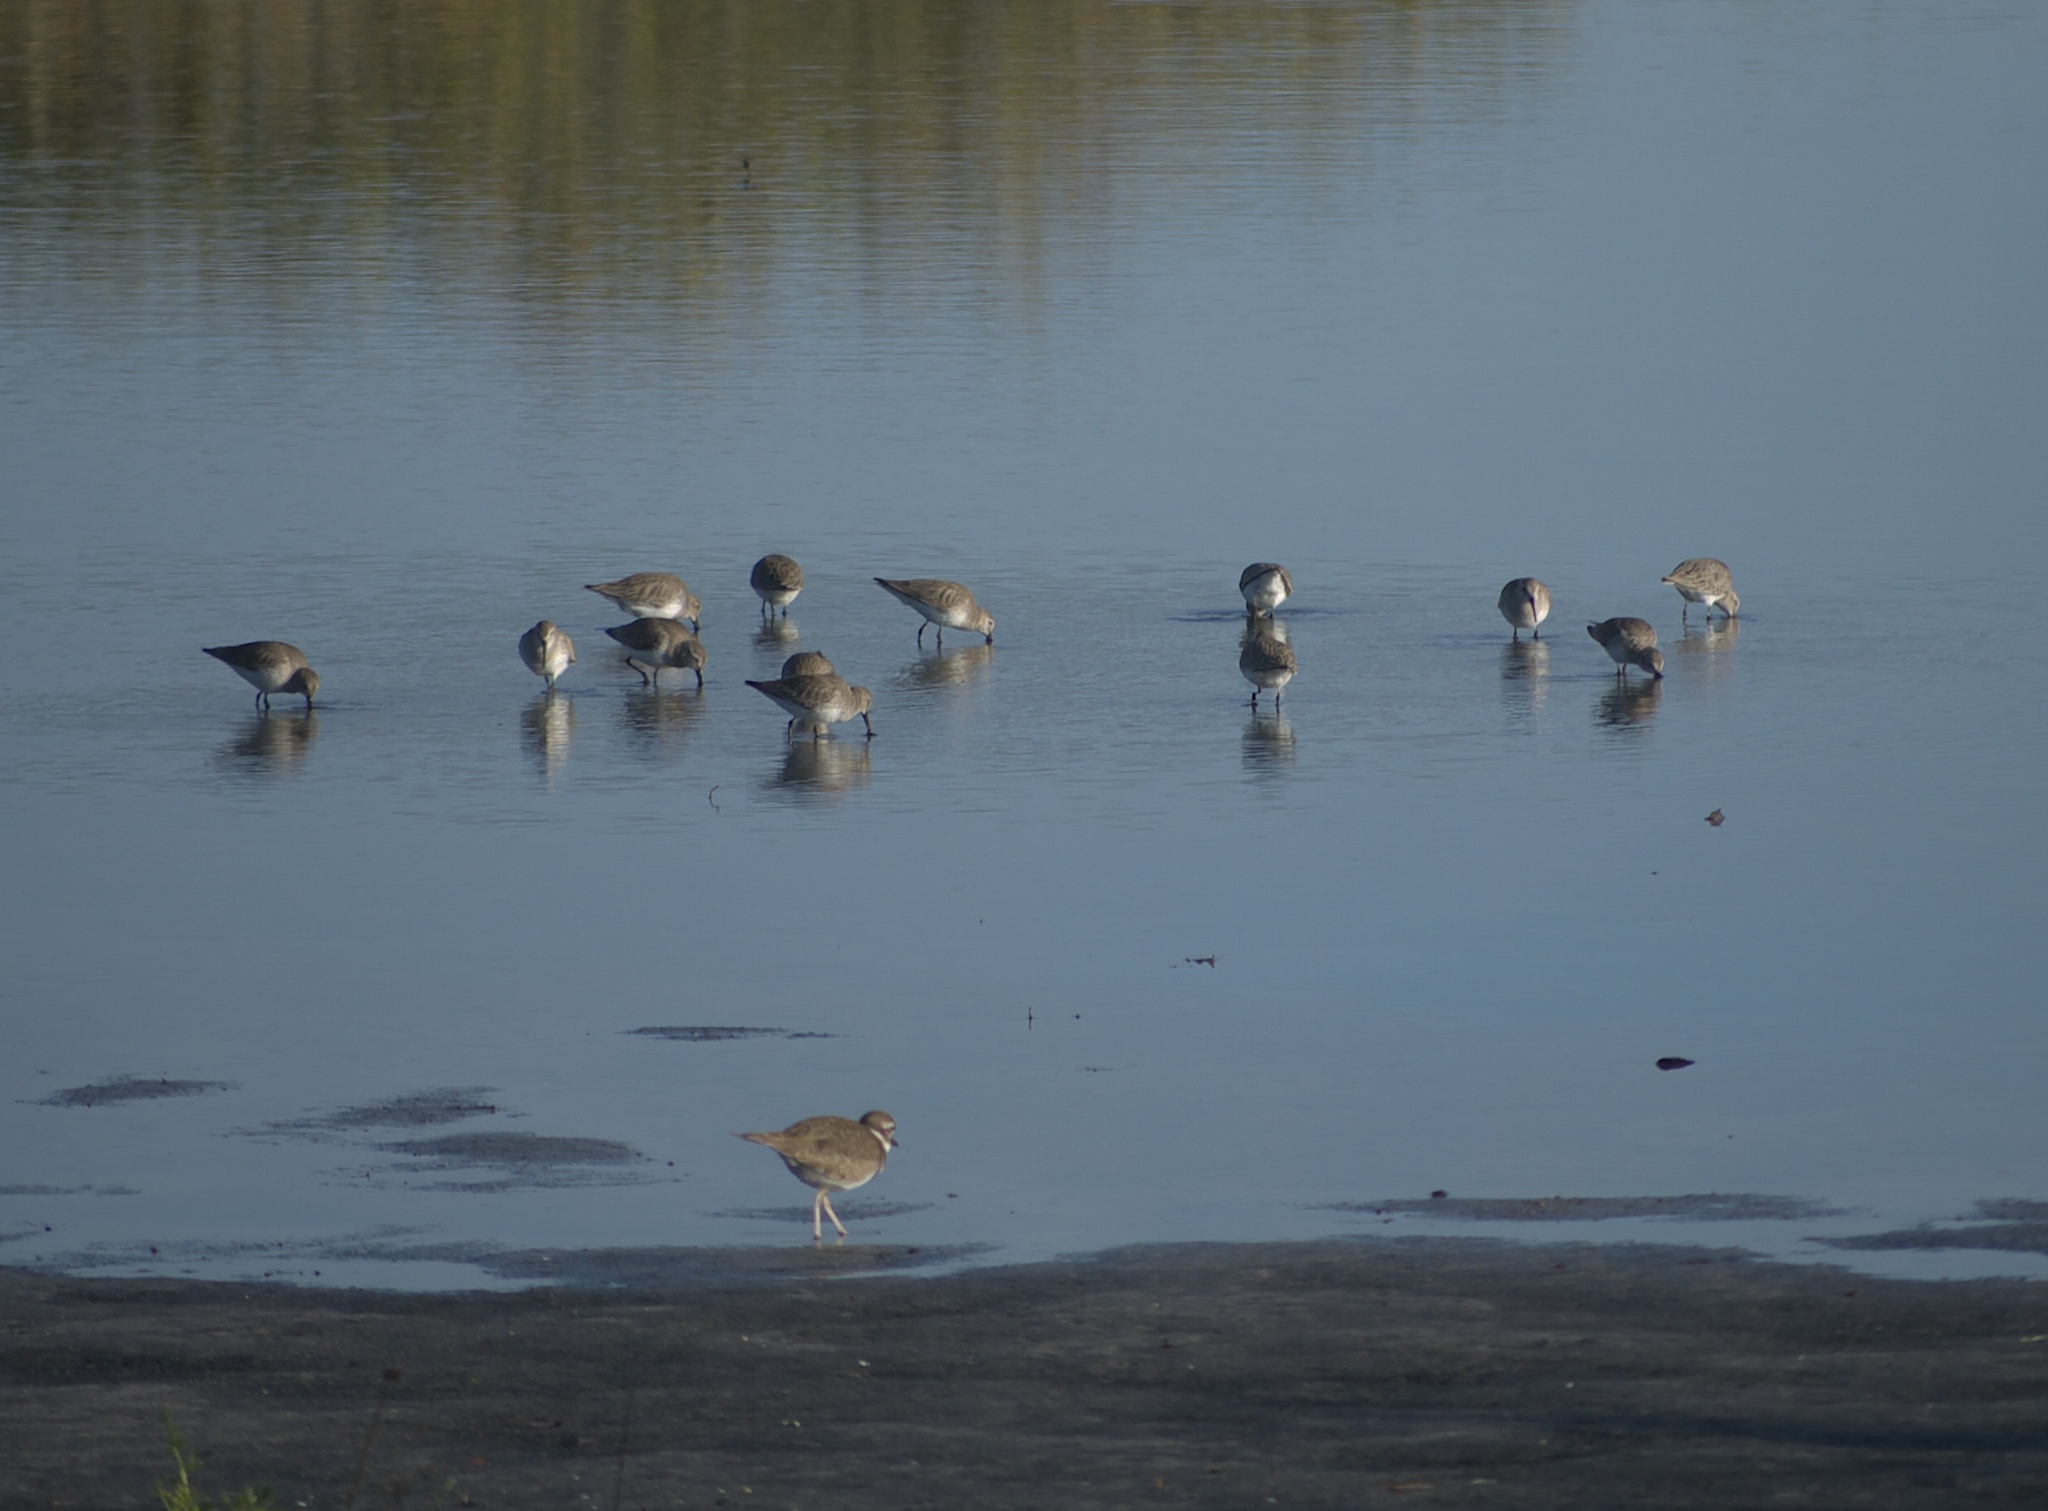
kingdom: Animalia
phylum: Chordata
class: Aves
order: Charadriiformes
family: Scolopacidae
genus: Calidris
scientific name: Calidris alpina
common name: Dunlin
